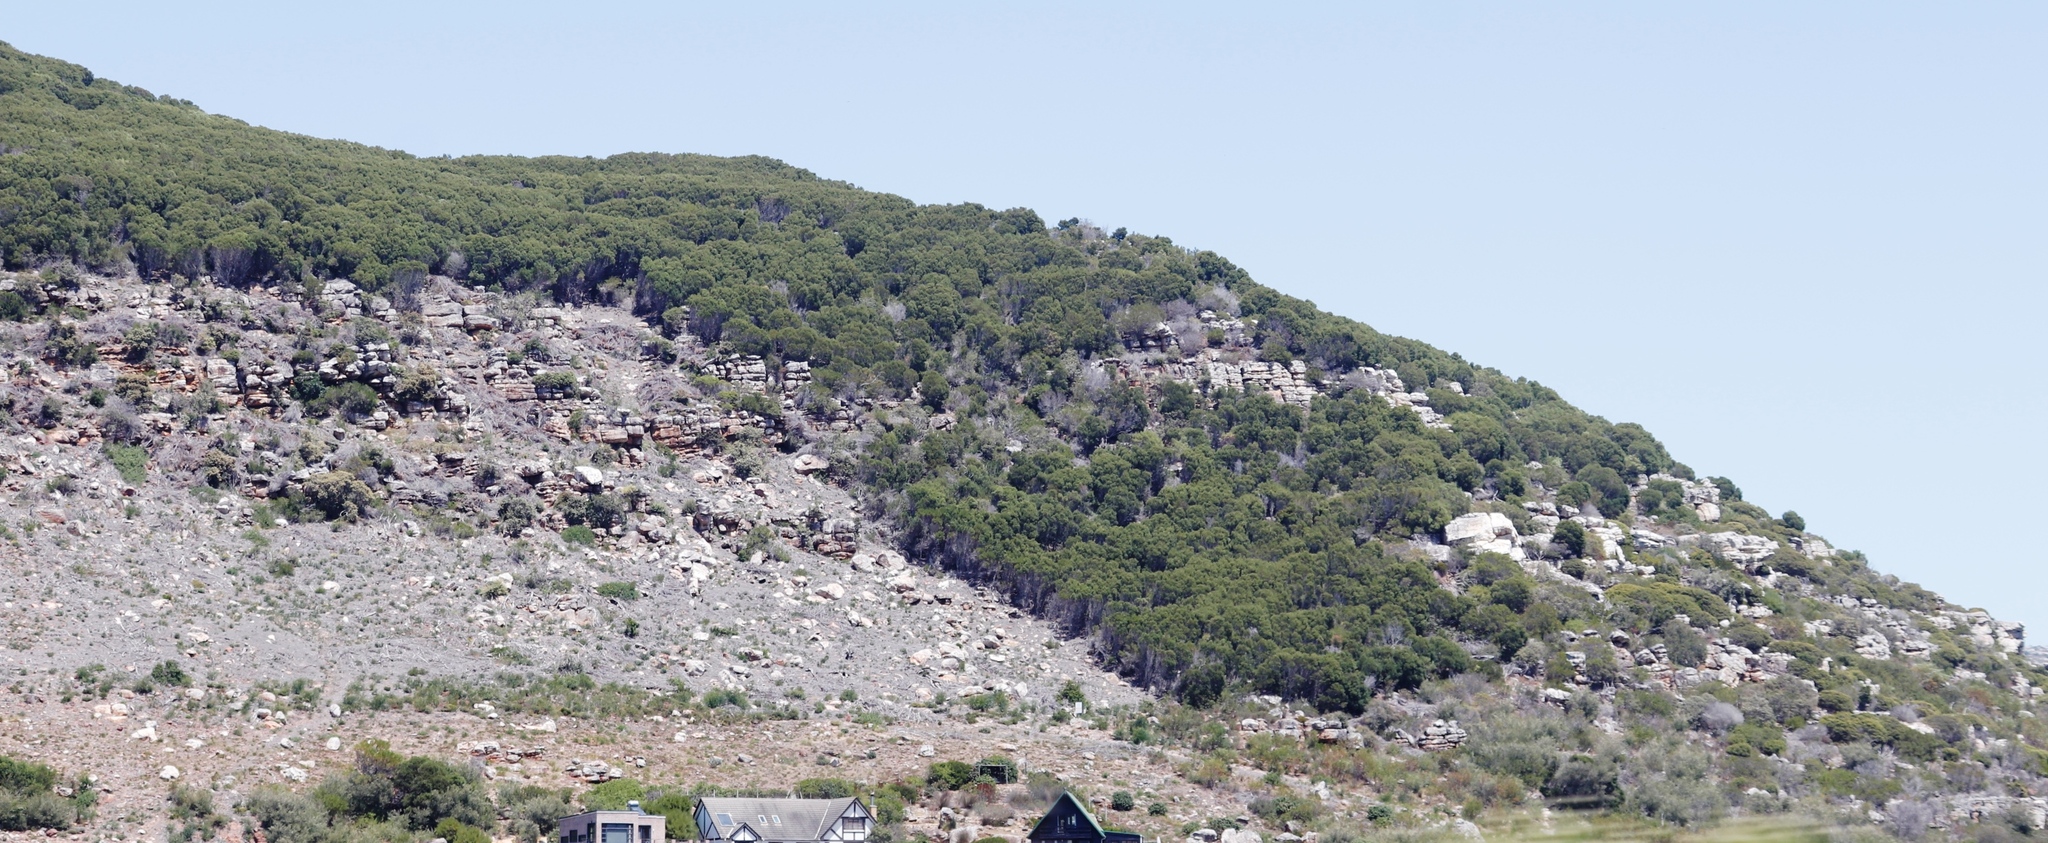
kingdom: Plantae
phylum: Tracheophyta
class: Magnoliopsida
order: Fabales
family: Fabaceae
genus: Acacia
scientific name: Acacia cyclops
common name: Coastal wattle
